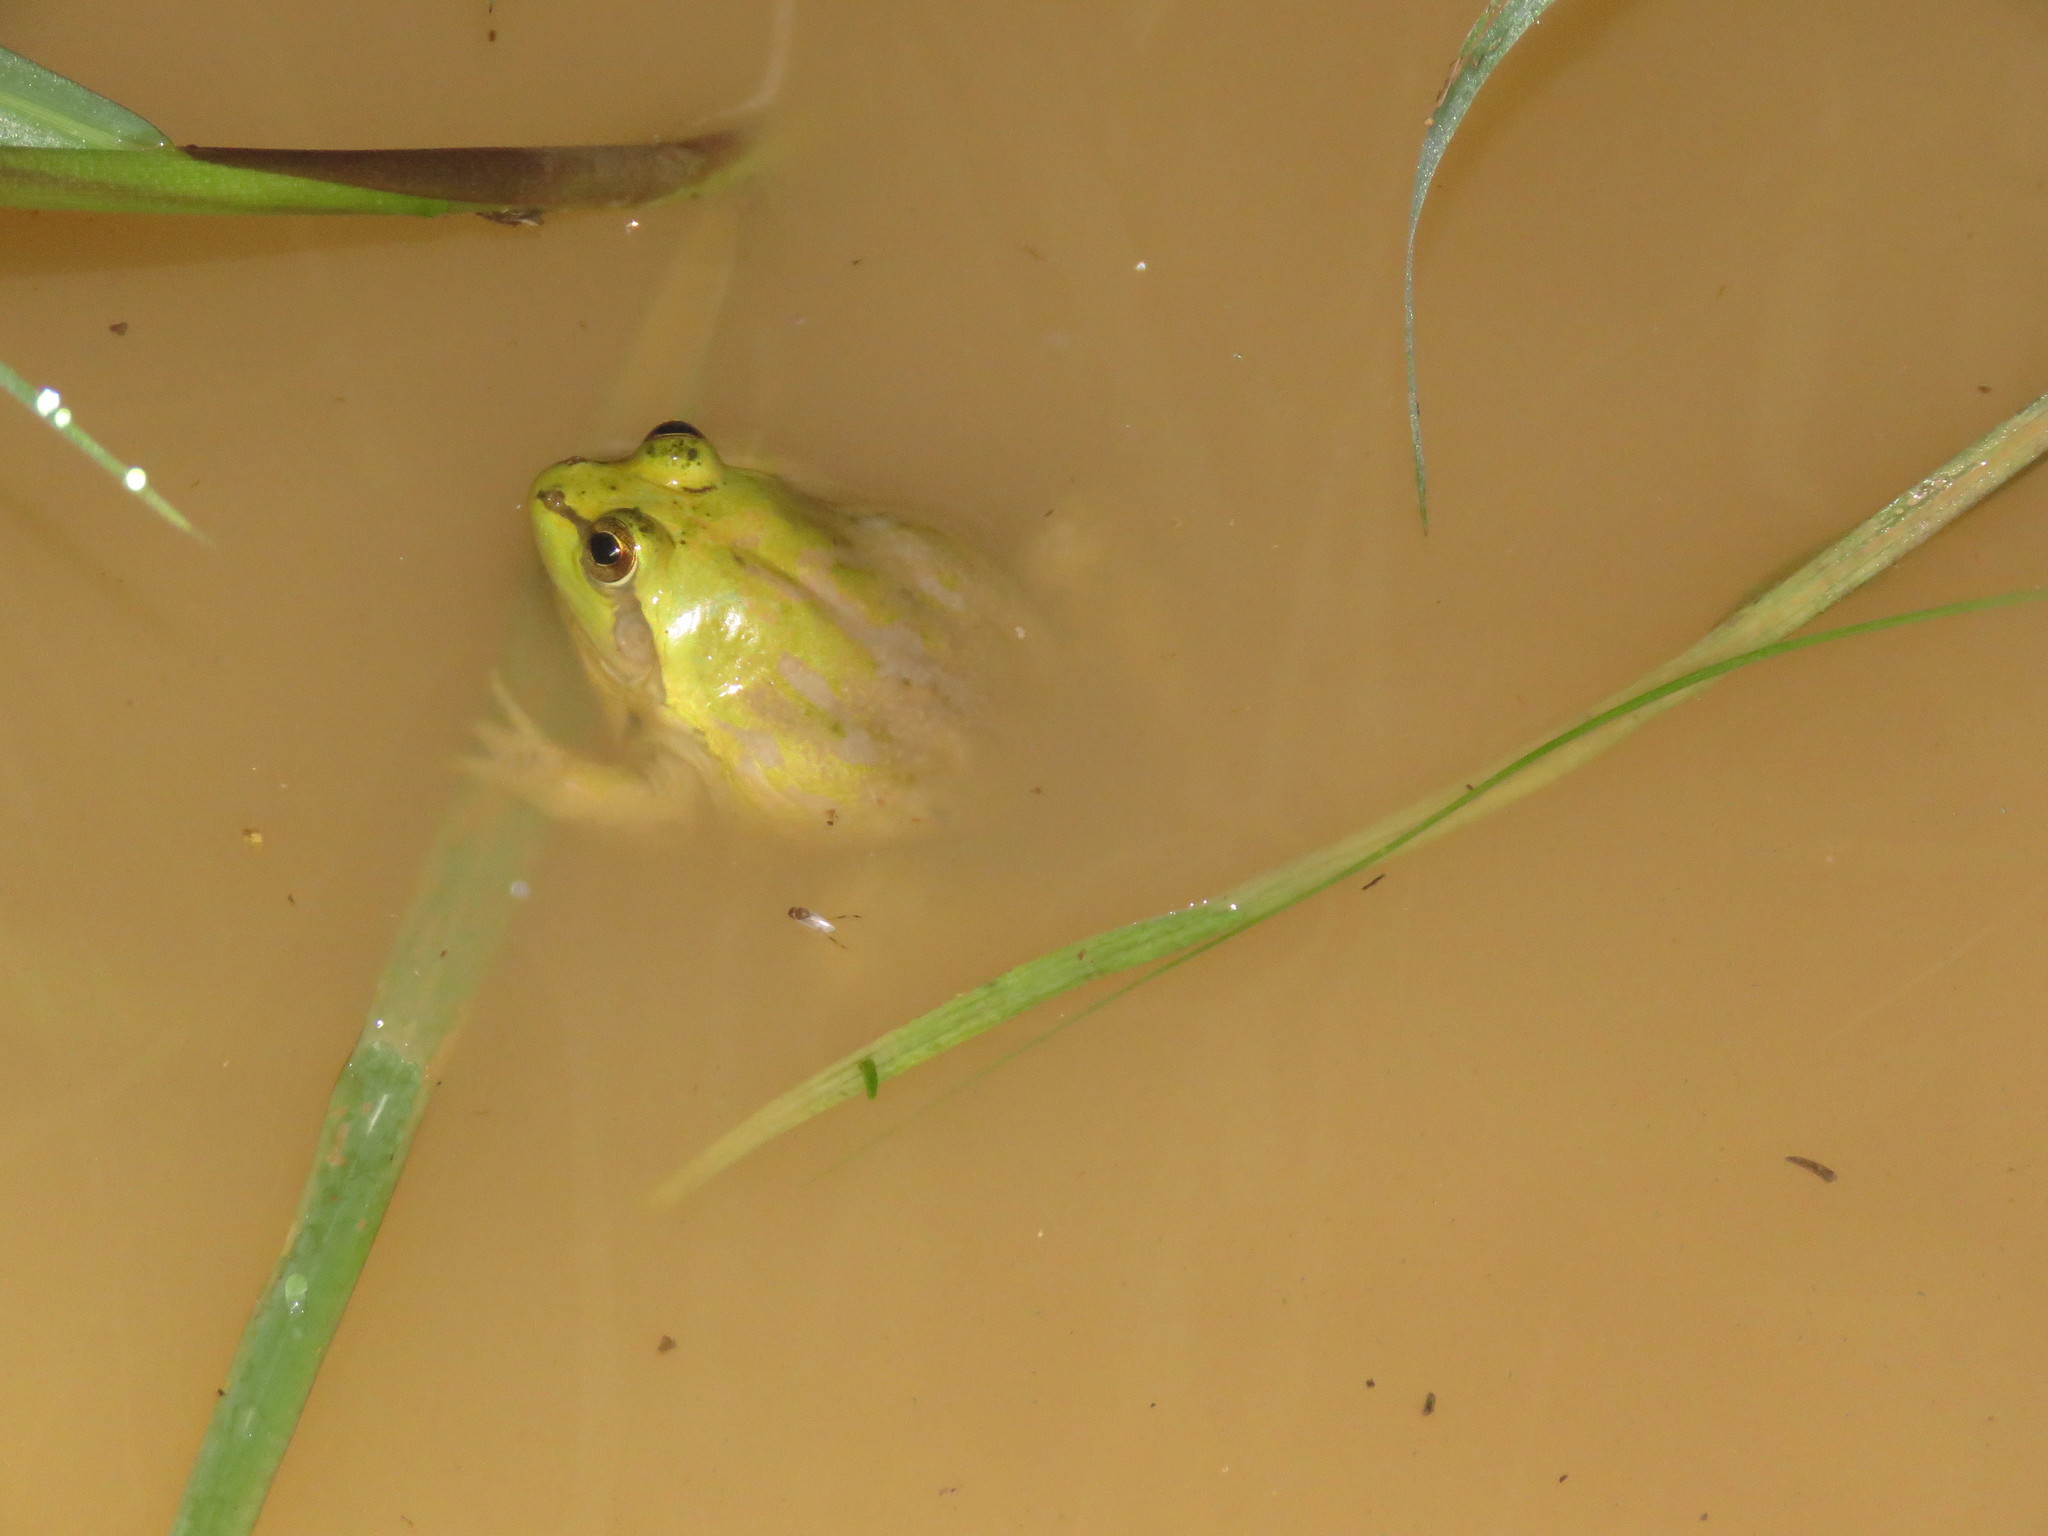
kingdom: Animalia
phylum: Chordata
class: Amphibia
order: Anura
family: Hylidae
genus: Pseudis
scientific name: Pseudis paradoxa
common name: Swimming frog
